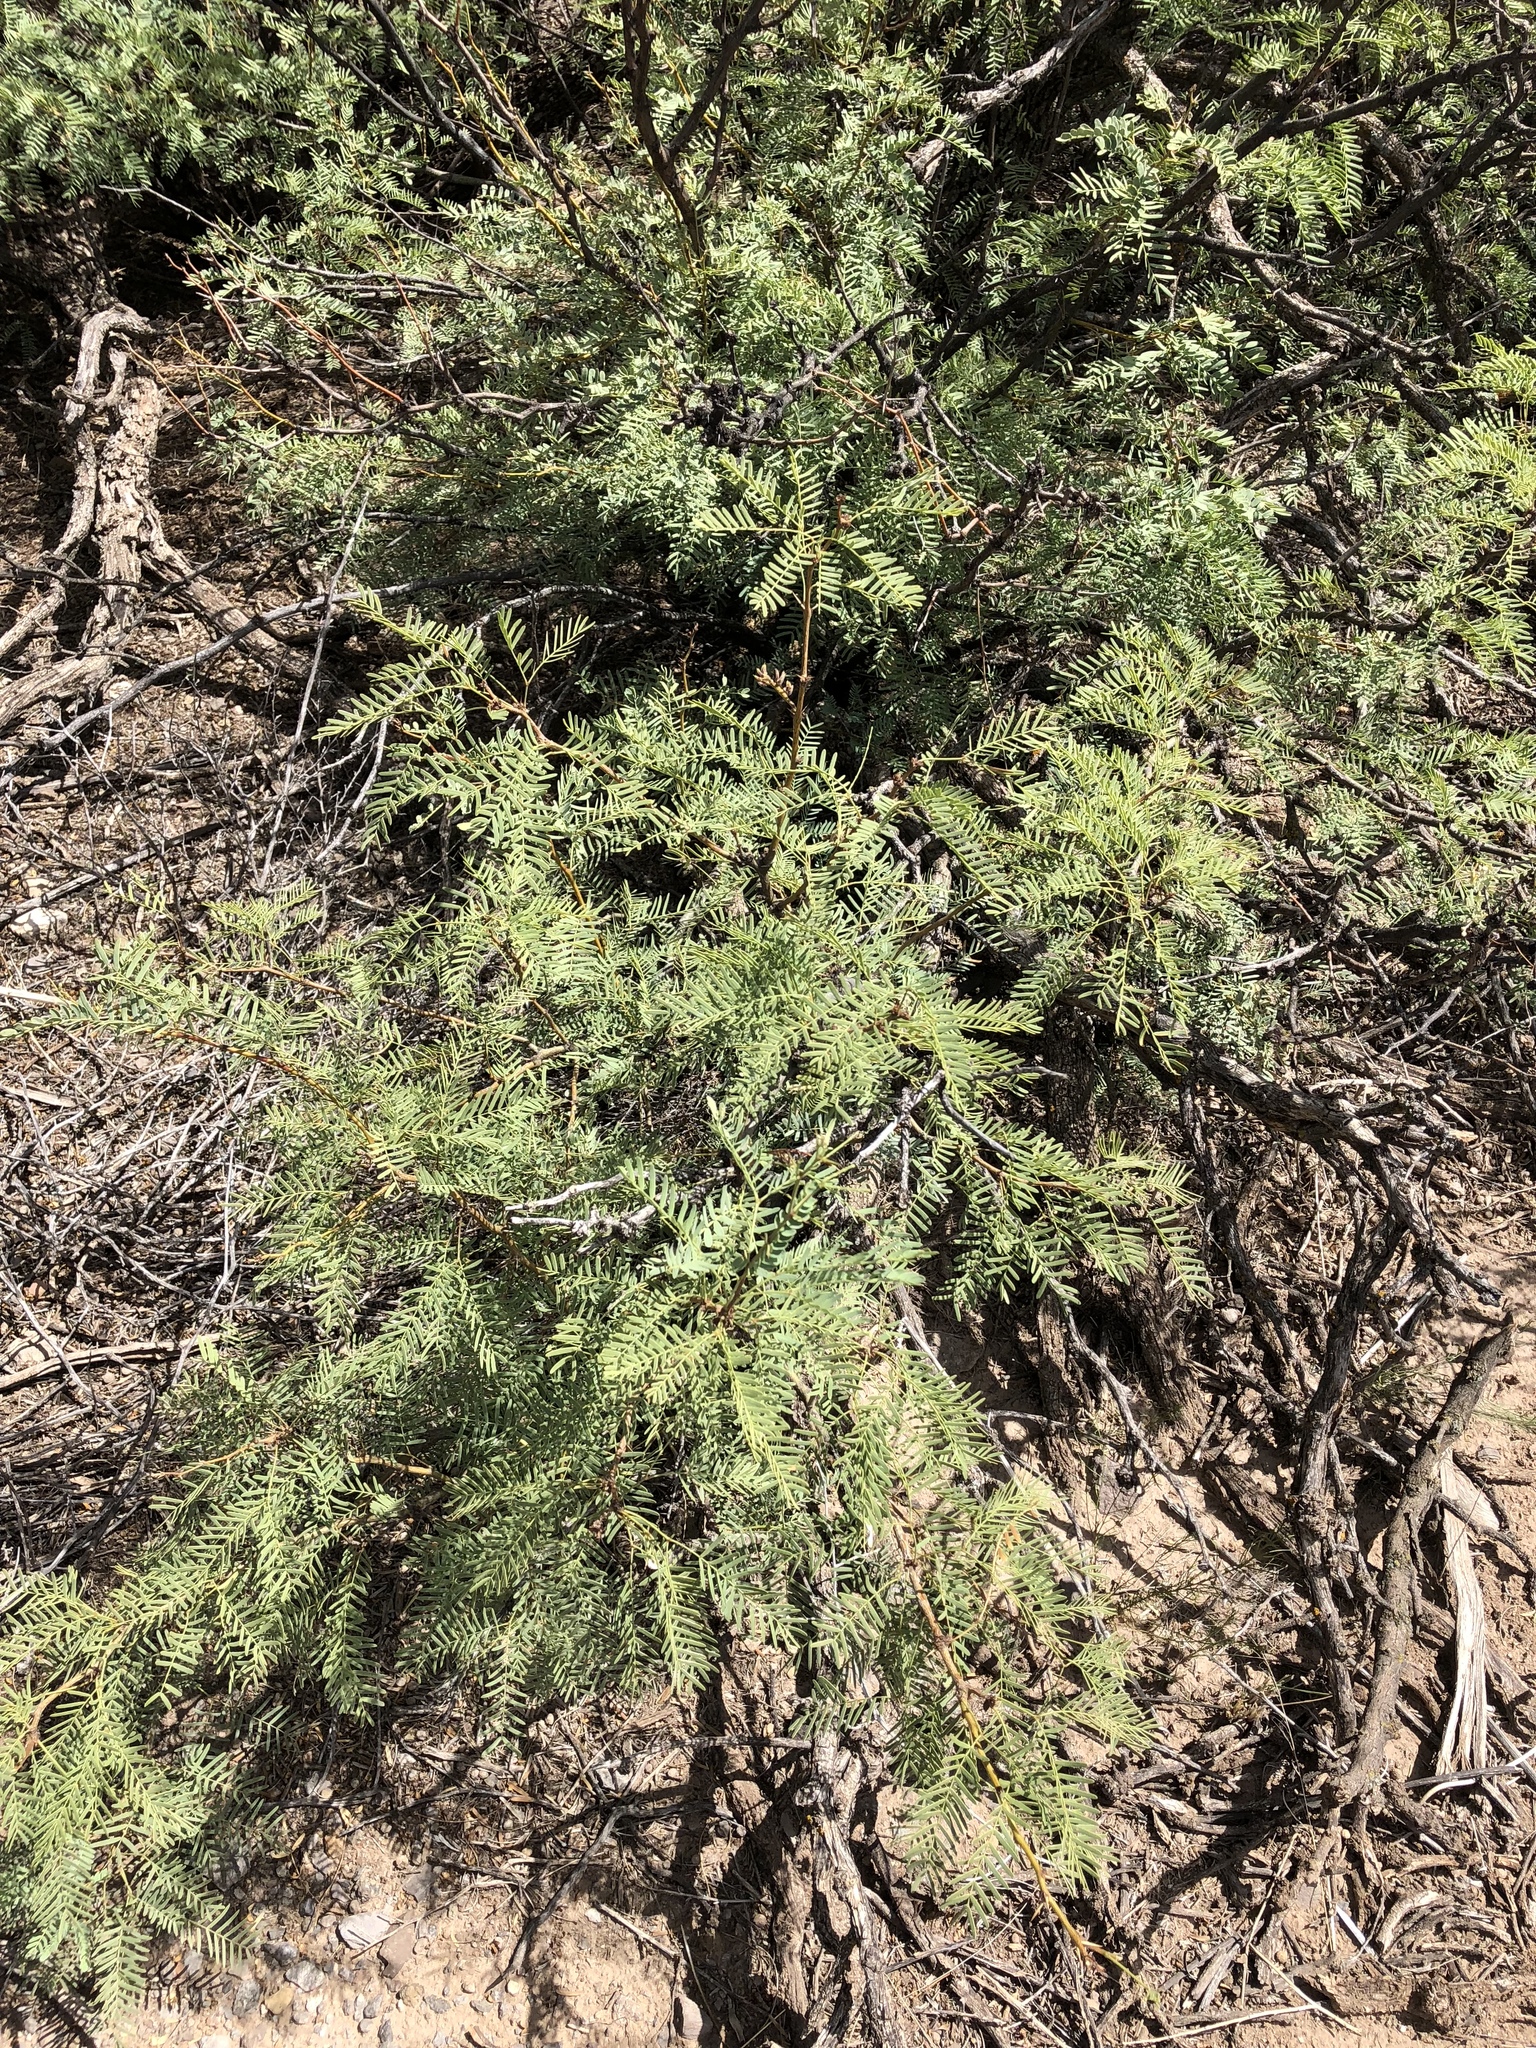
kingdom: Plantae
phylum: Tracheophyta
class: Magnoliopsida
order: Fabales
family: Fabaceae
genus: Prosopis
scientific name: Prosopis glandulosa
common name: Honey mesquite
